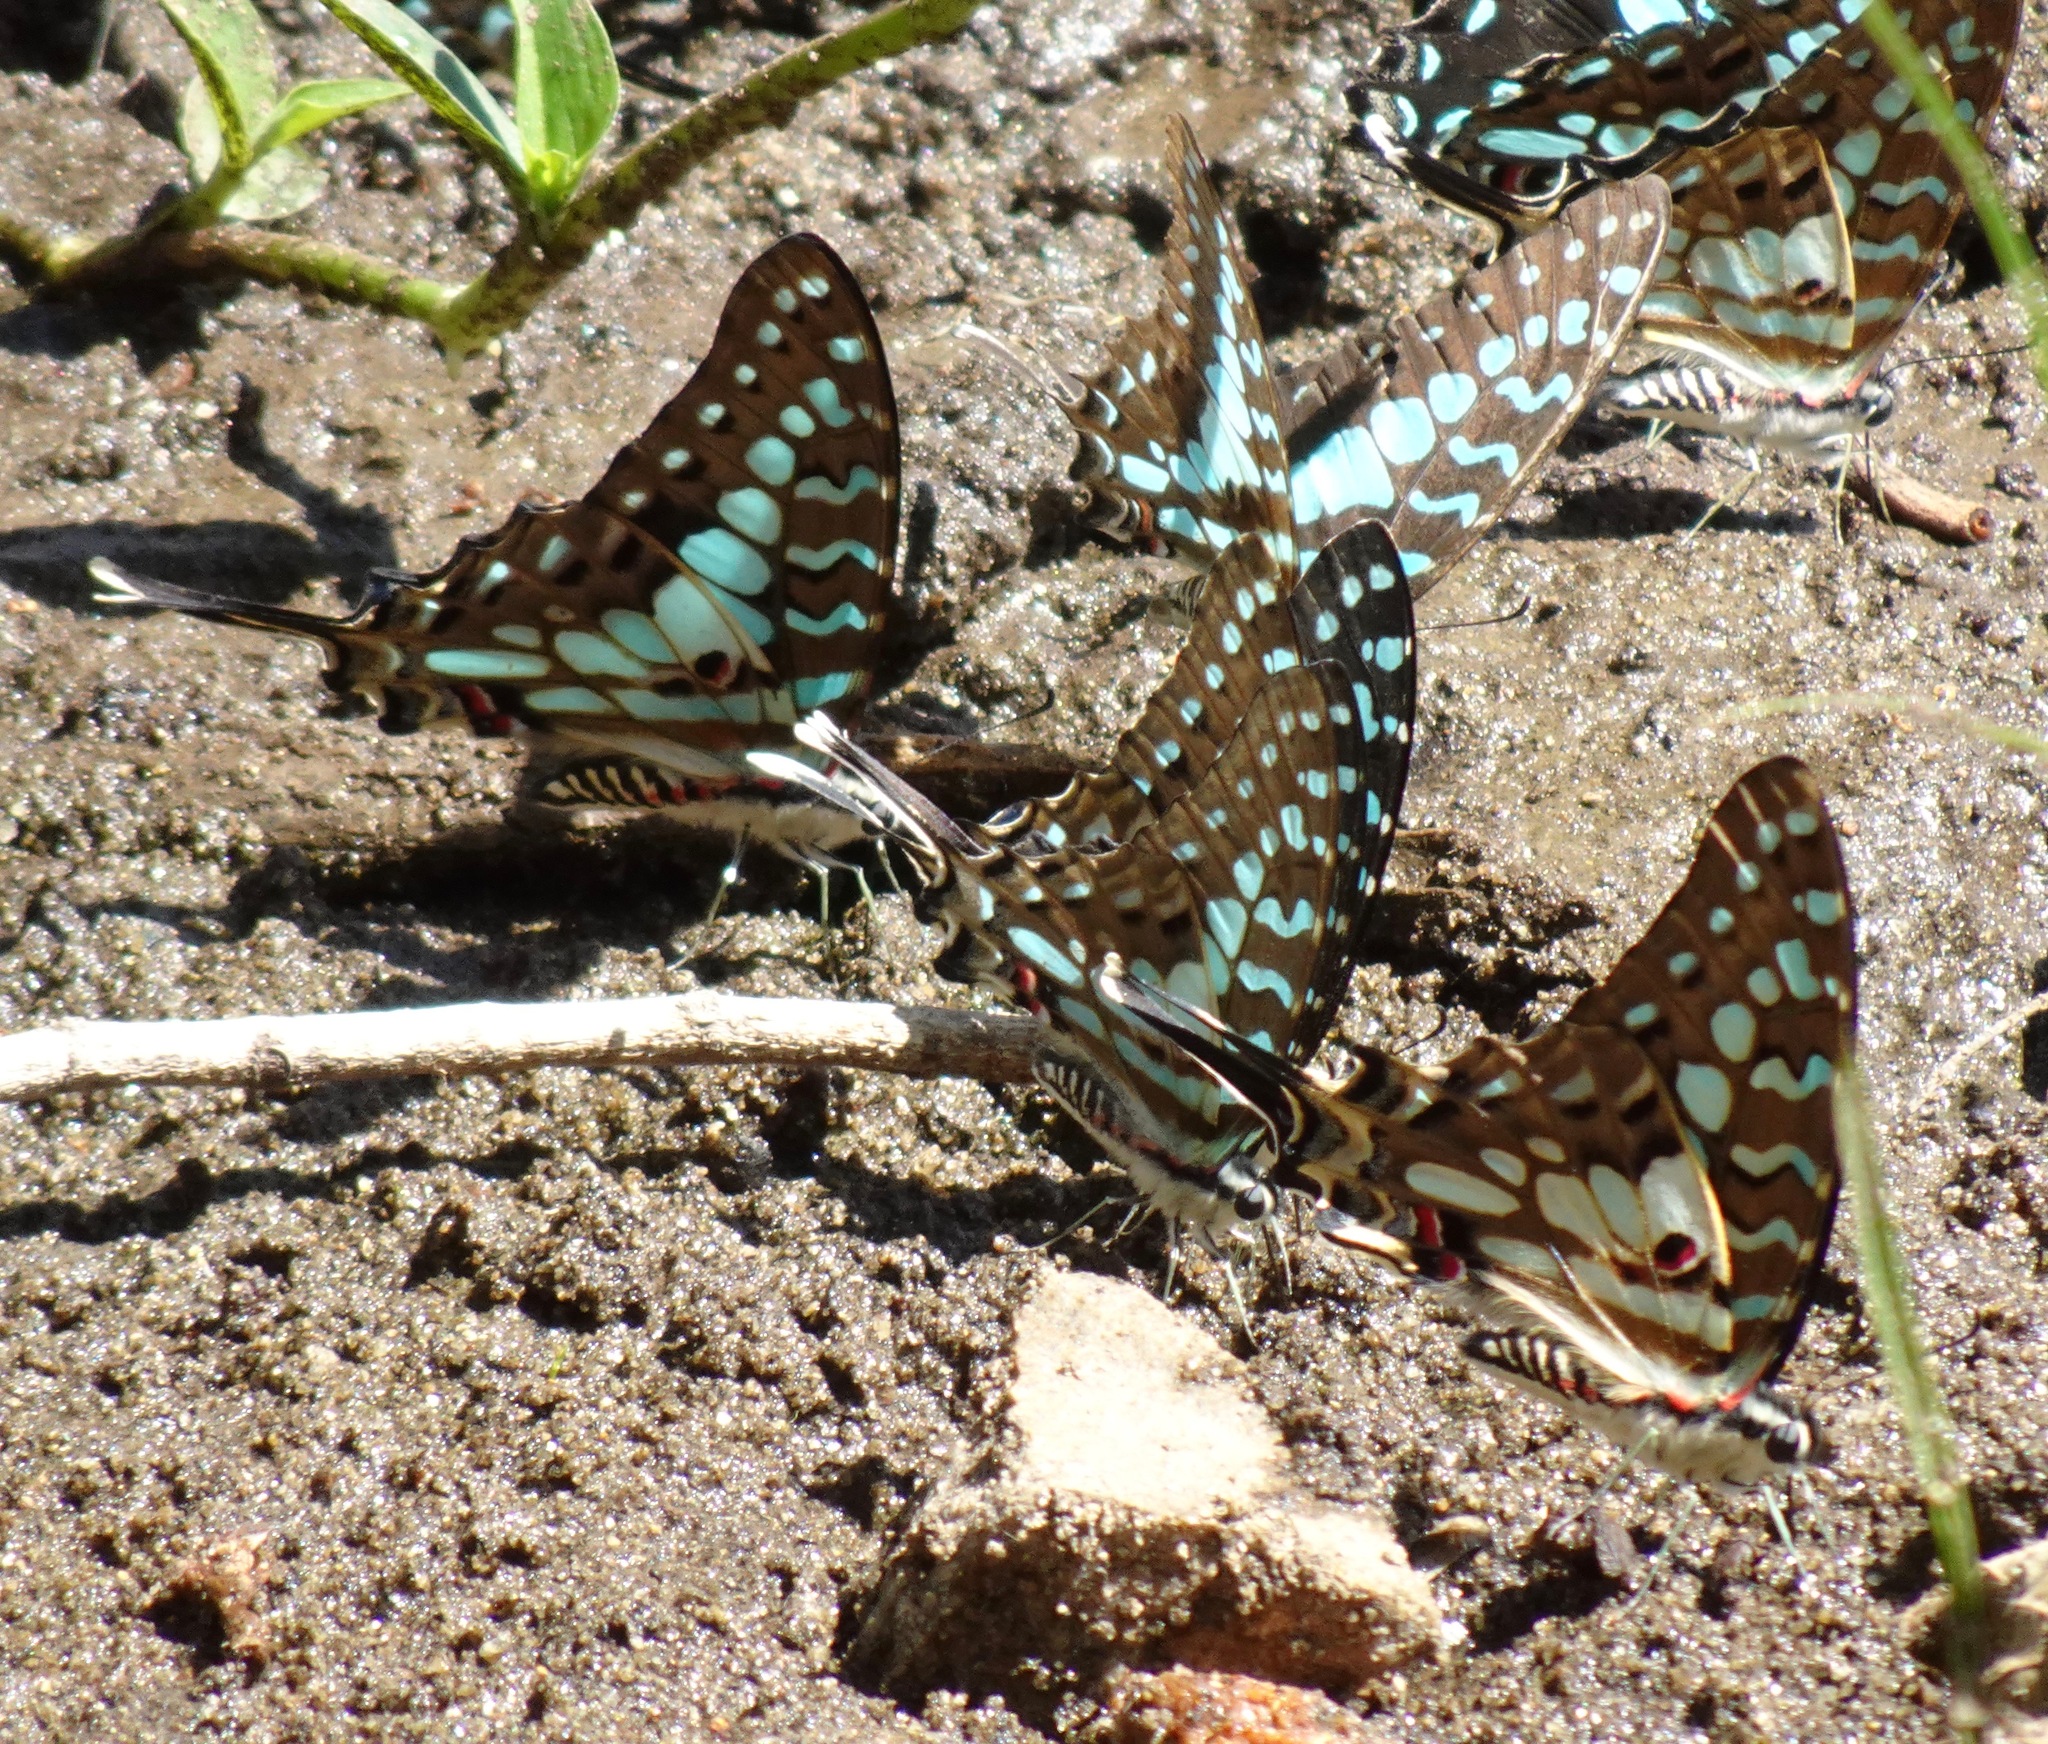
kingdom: Animalia
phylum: Arthropoda
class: Insecta
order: Lepidoptera
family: Papilionidae
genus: Graphium
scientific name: Graphium antheus
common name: Large striped swordtail
